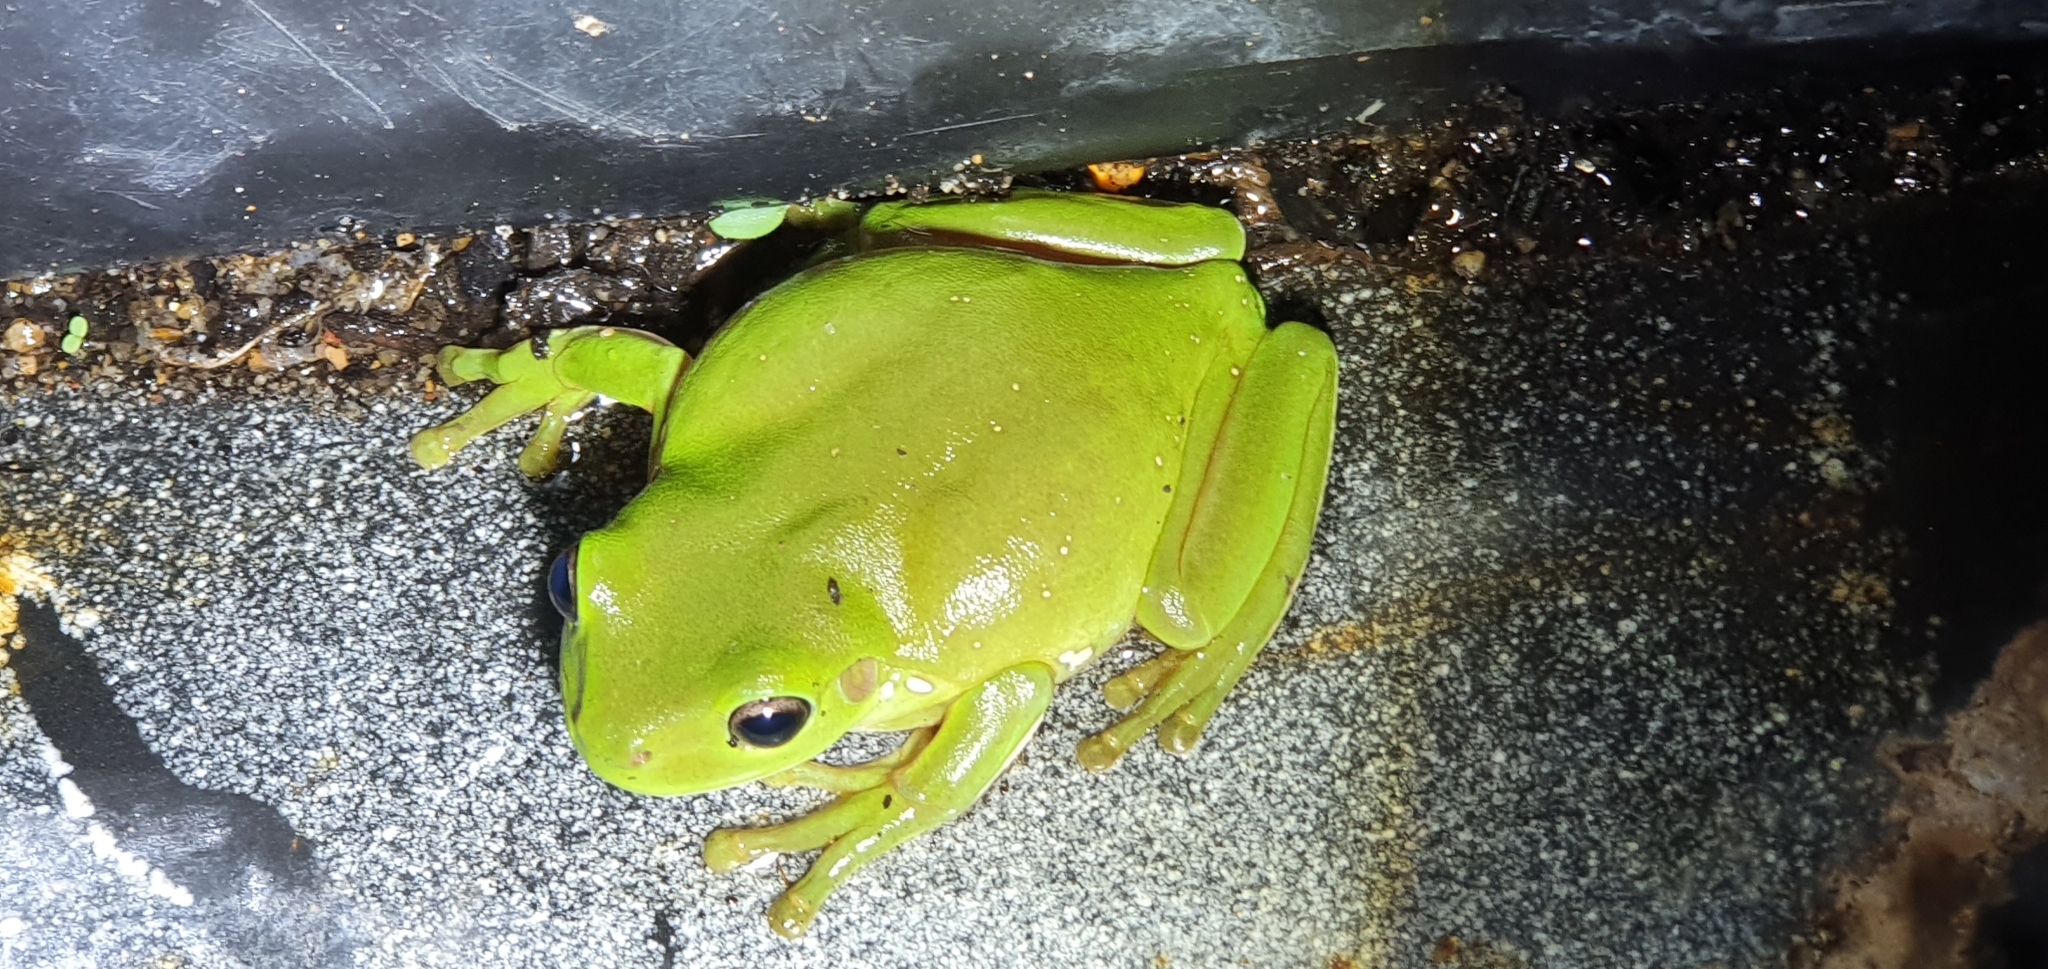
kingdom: Animalia
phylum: Chordata
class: Amphibia
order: Anura
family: Pelodryadidae
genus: Ranoidea
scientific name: Ranoidea caerulea
